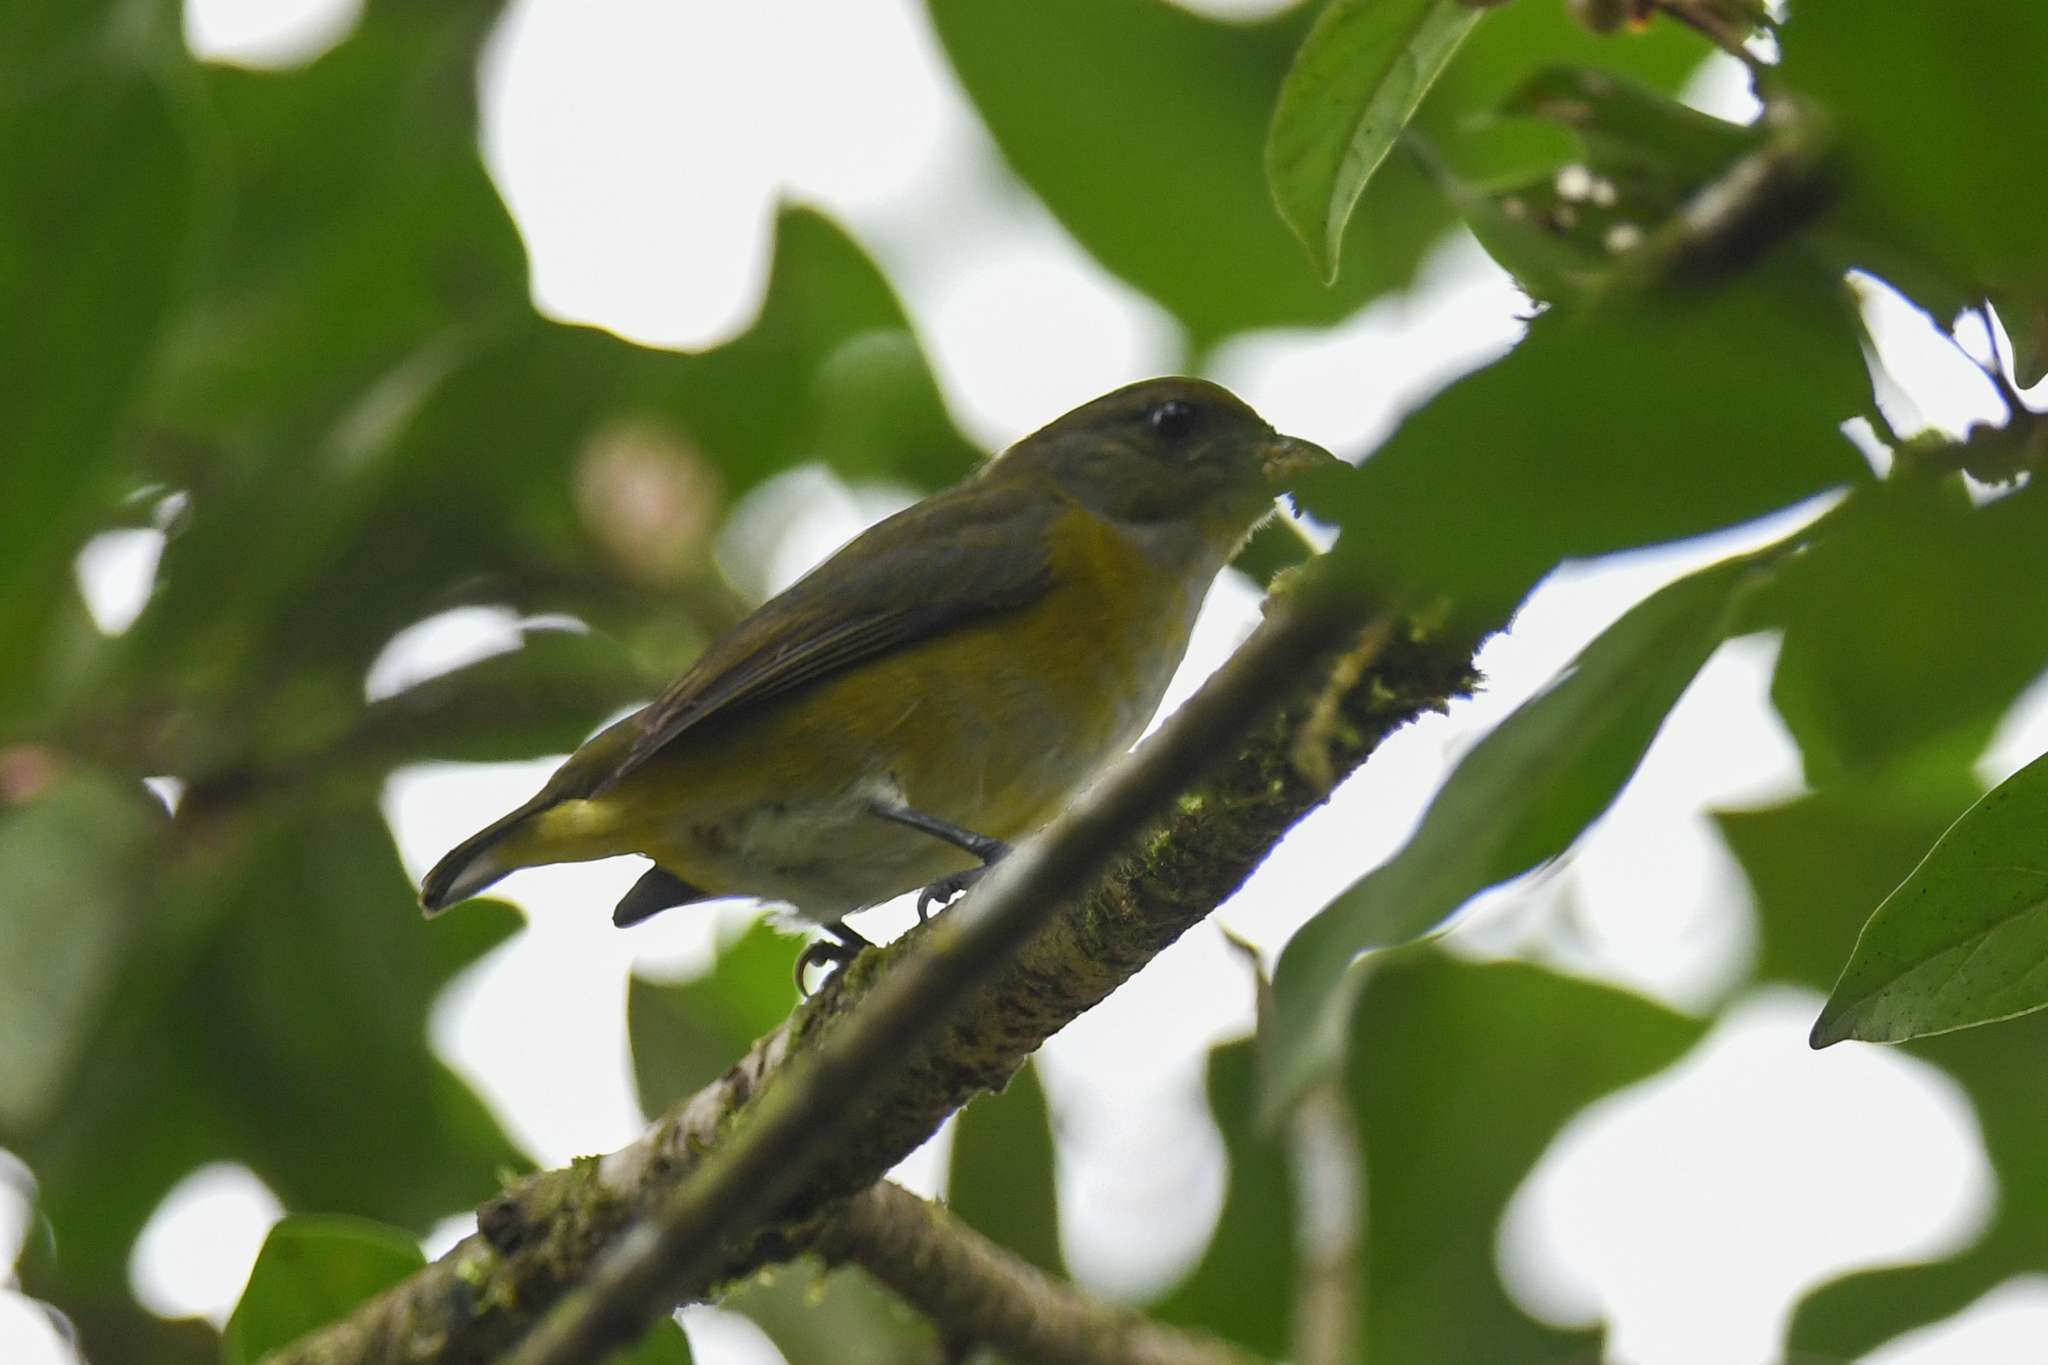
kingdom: Animalia
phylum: Chordata
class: Aves
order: Passeriformes
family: Fringillidae
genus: Euphonia
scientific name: Euphonia hirundinacea
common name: Yellow-throated euphonia
